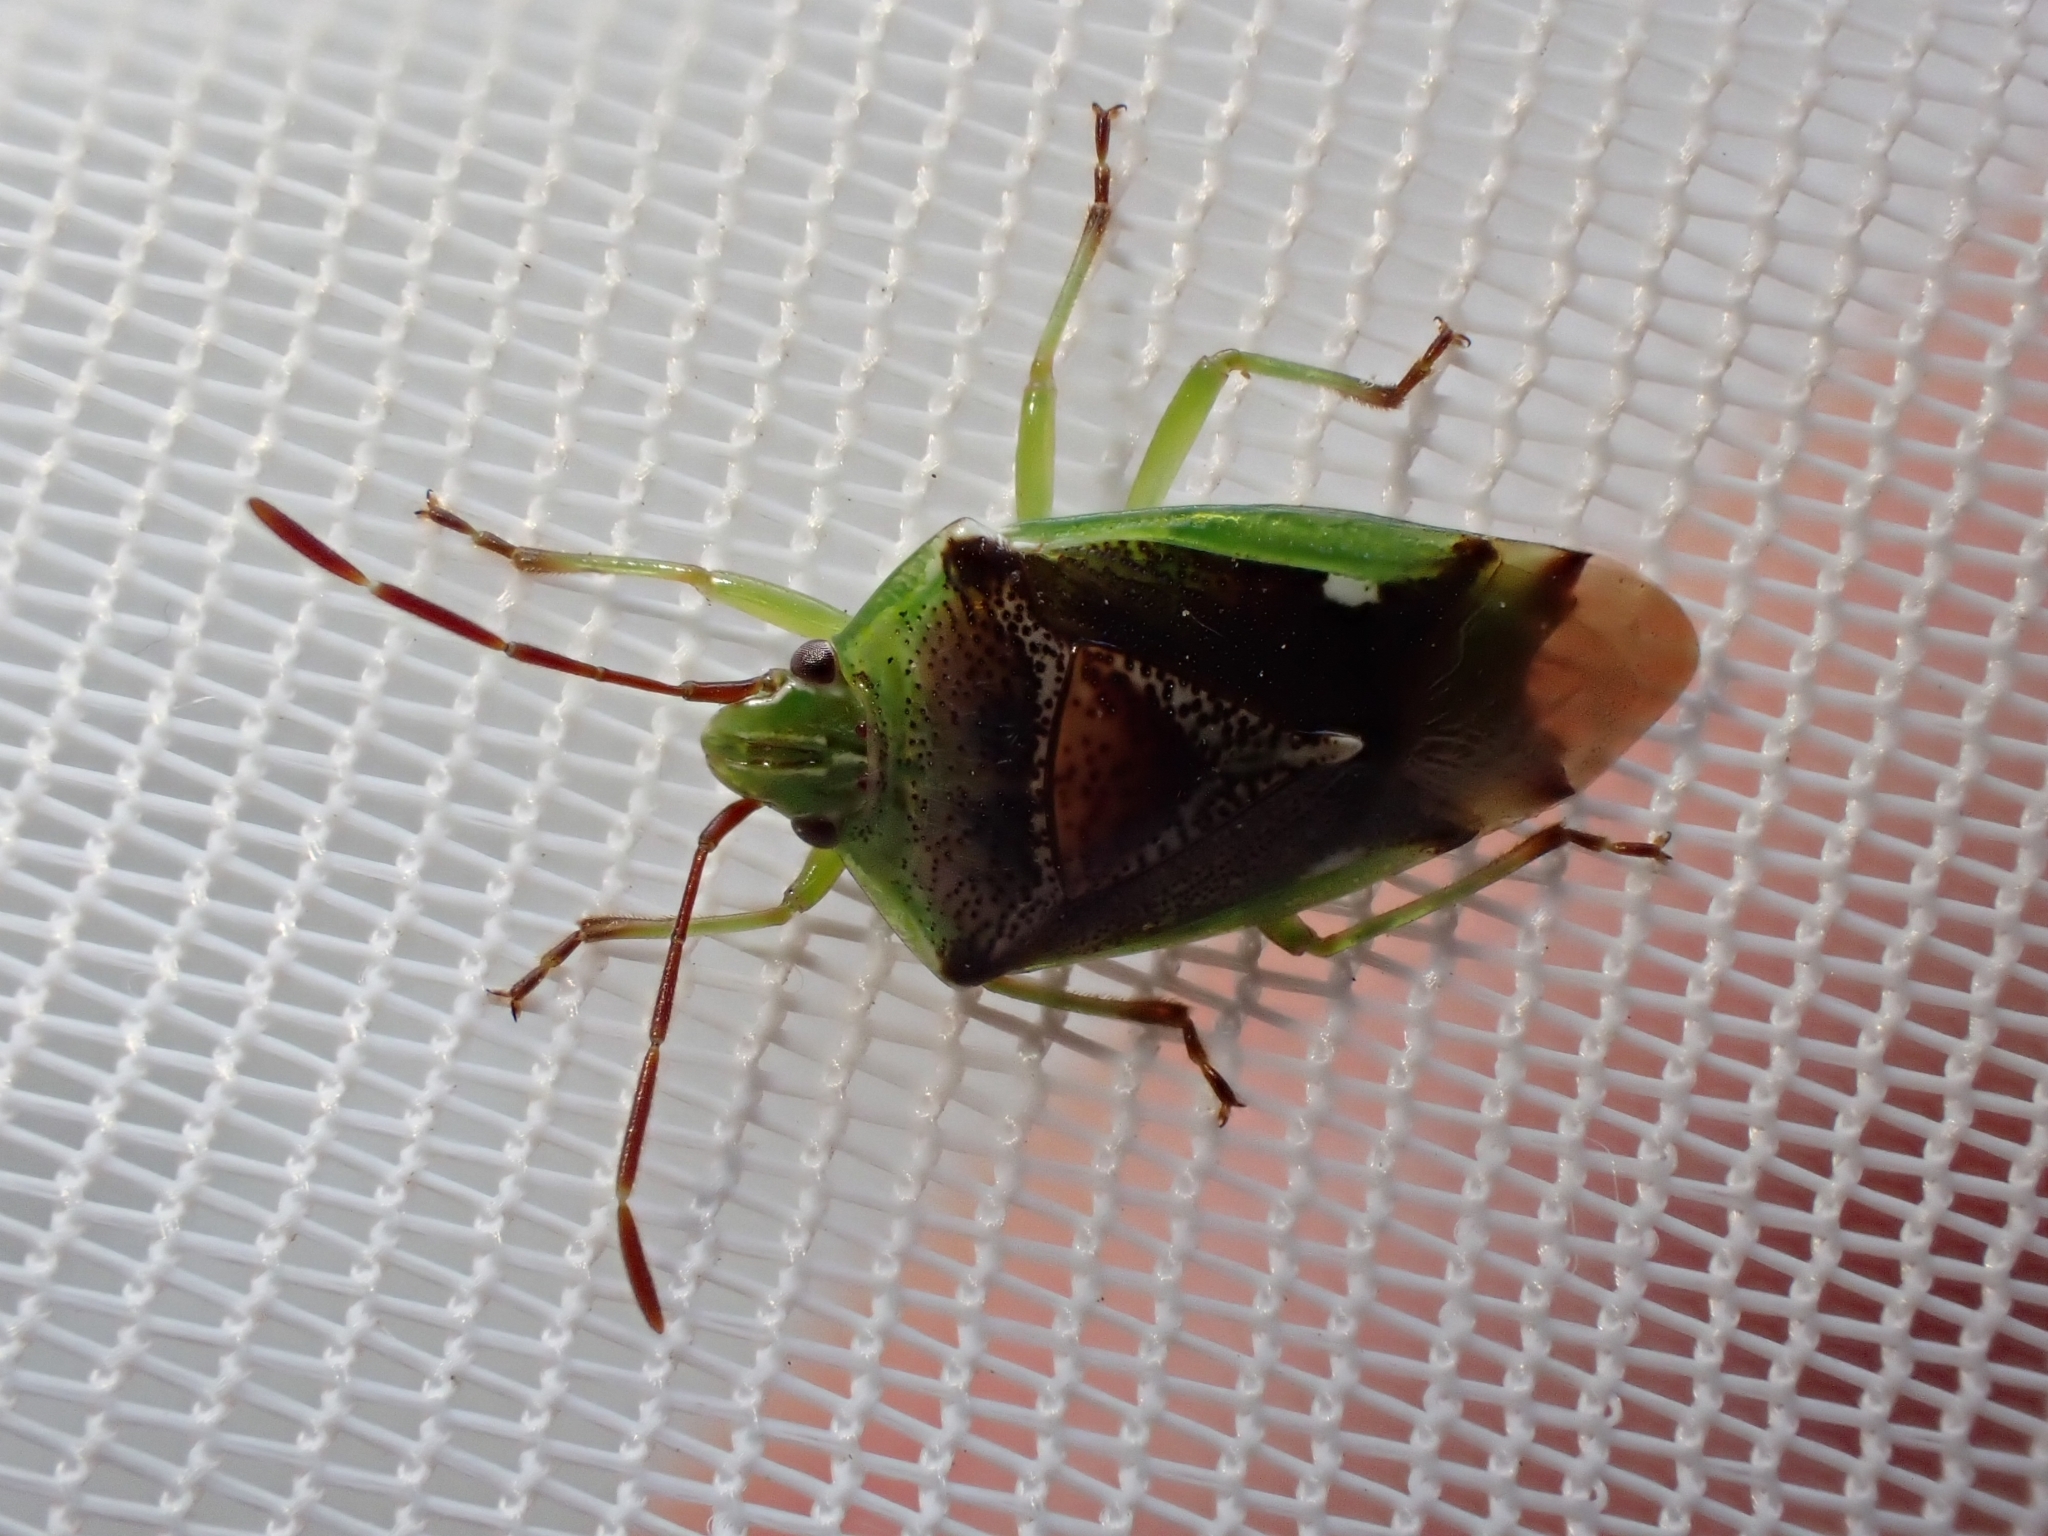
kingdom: Animalia
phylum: Arthropoda
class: Insecta
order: Hemiptera
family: Acanthosomatidae
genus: Oncacontias
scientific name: Oncacontias vittatus
